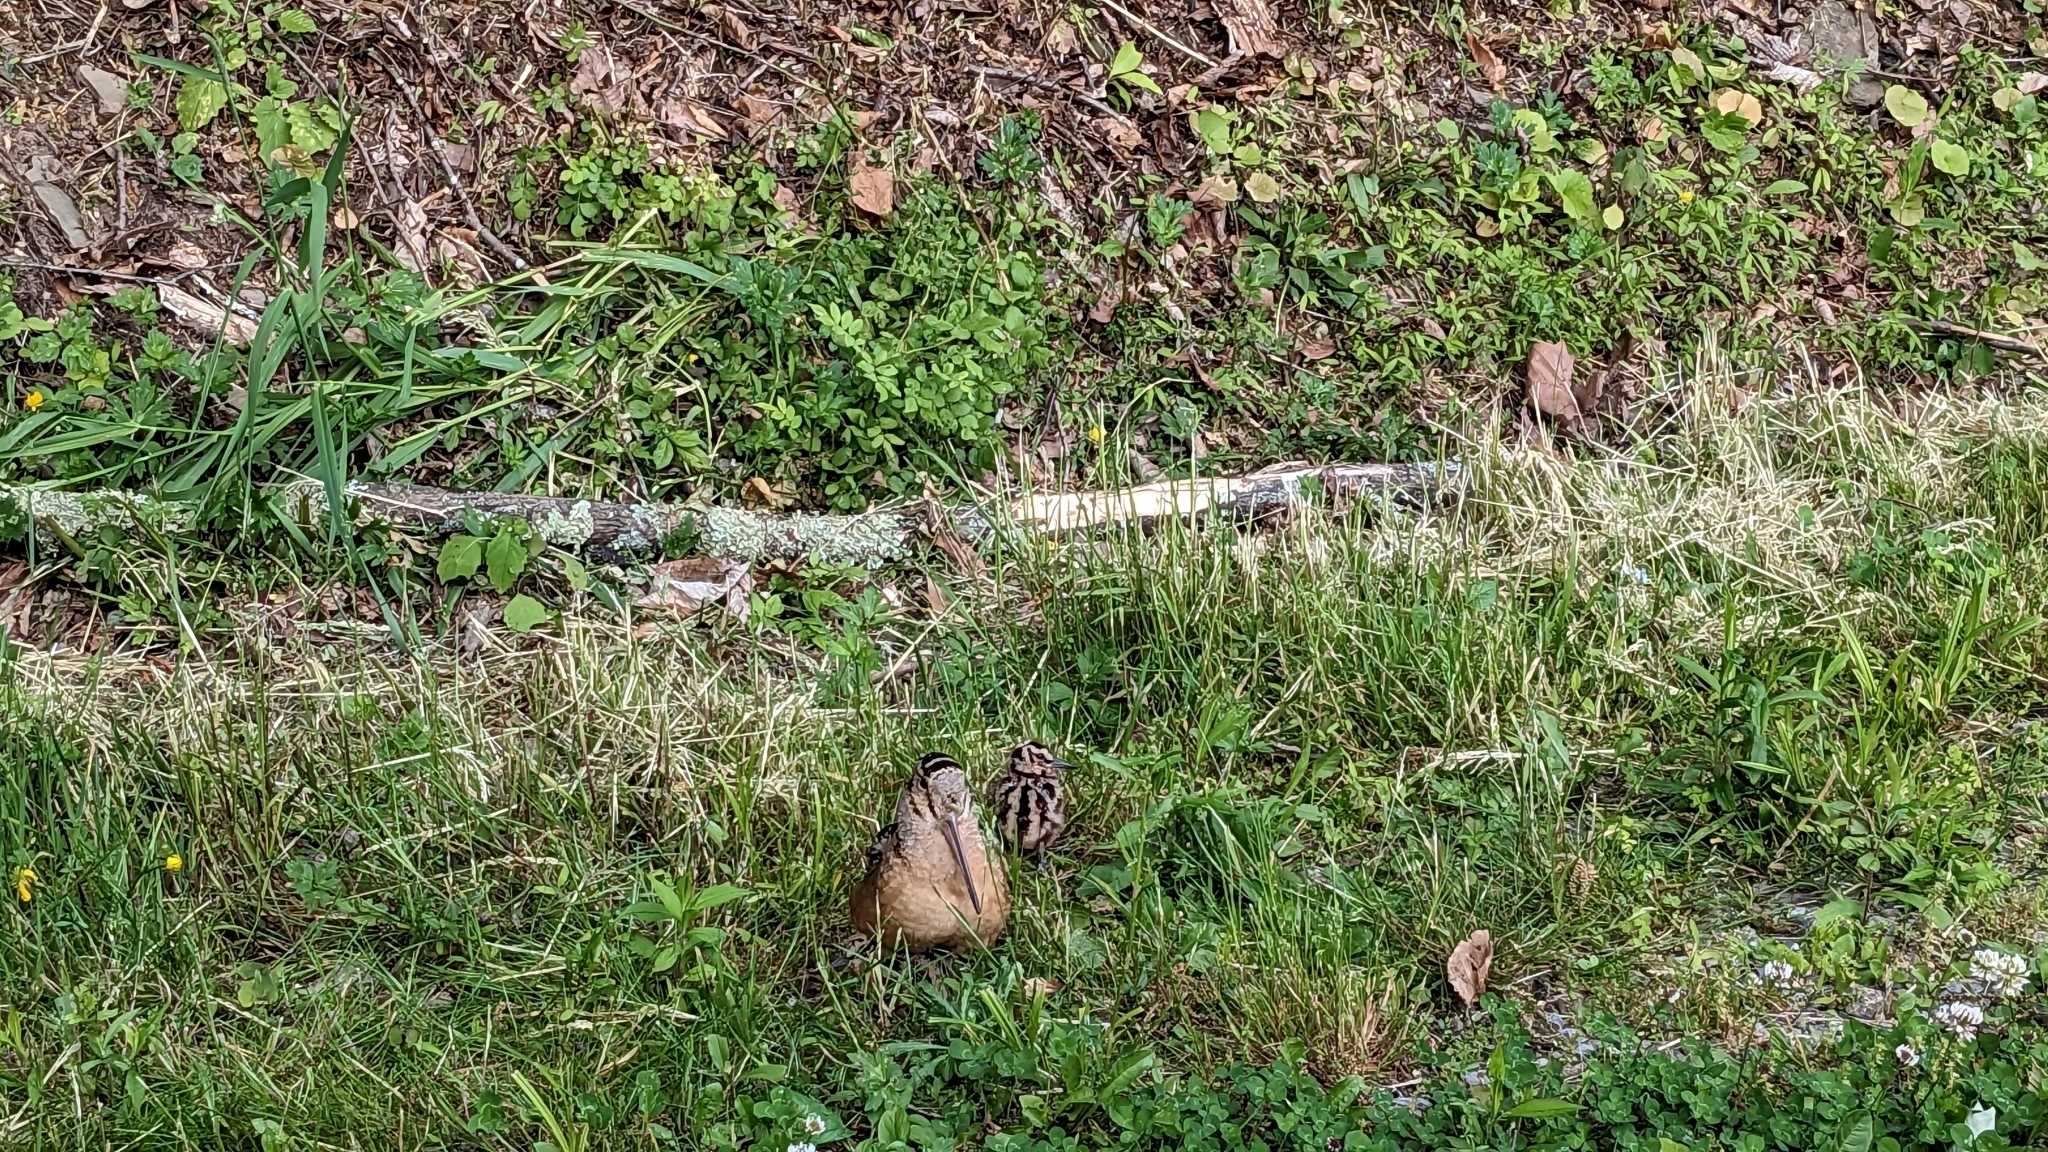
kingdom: Animalia
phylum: Chordata
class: Aves
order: Charadriiformes
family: Scolopacidae
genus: Scolopax
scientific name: Scolopax minor
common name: American woodcock
